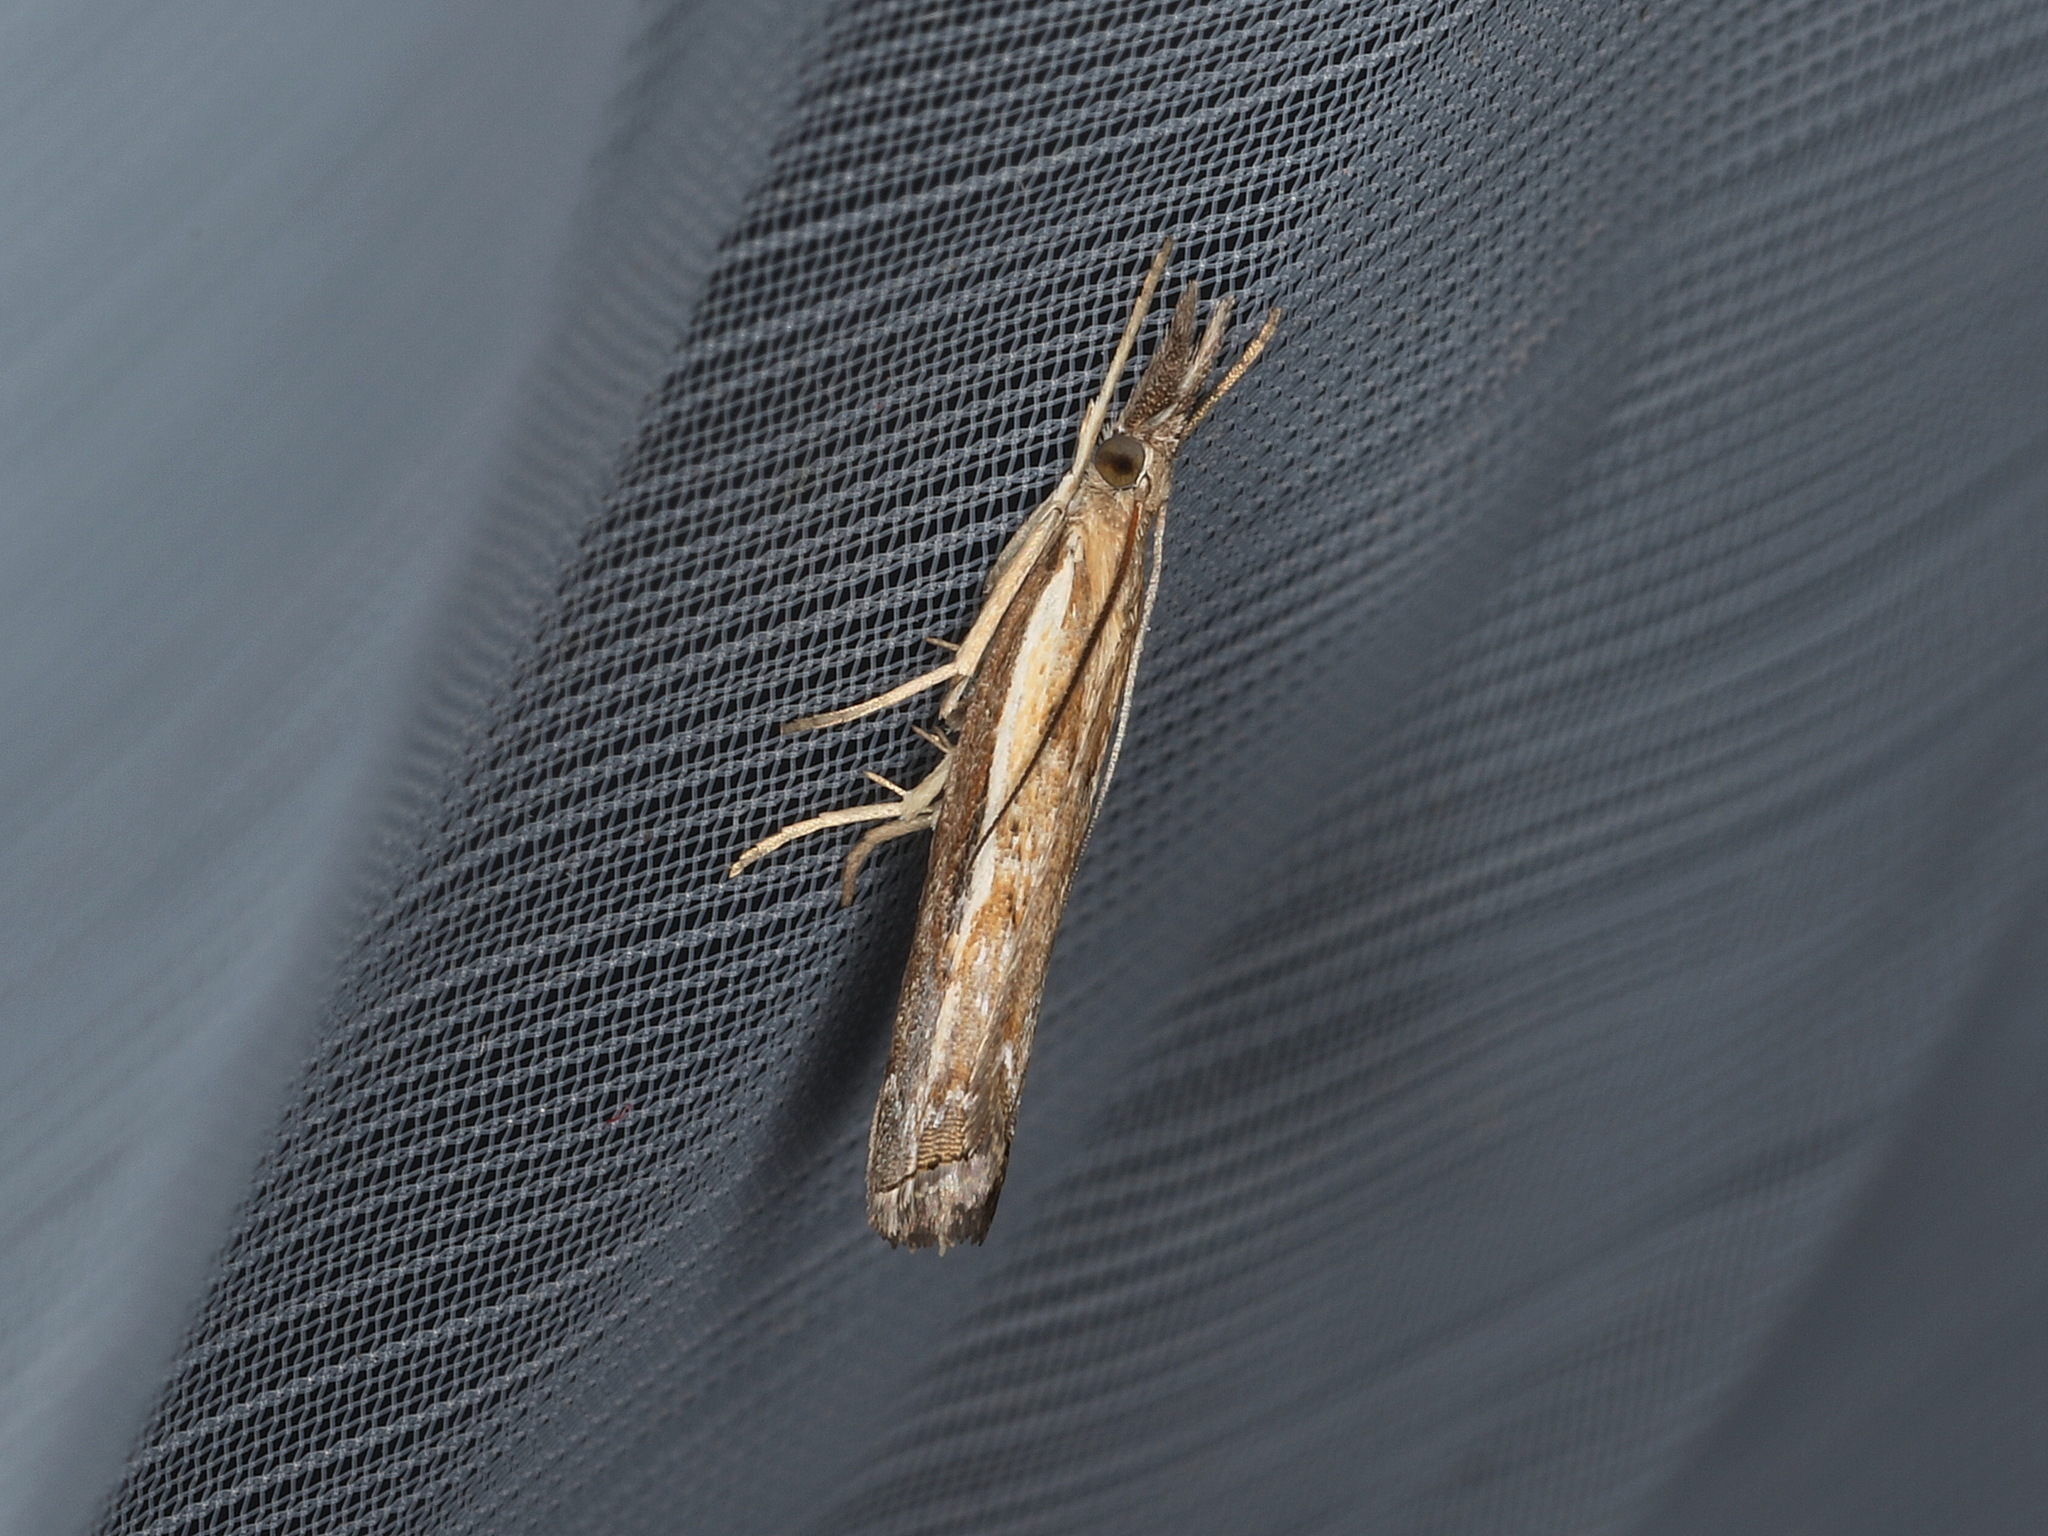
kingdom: Animalia
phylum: Arthropoda
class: Insecta
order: Lepidoptera
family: Crambidae
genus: Ptochostola
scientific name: Ptochostola microphaeellus
